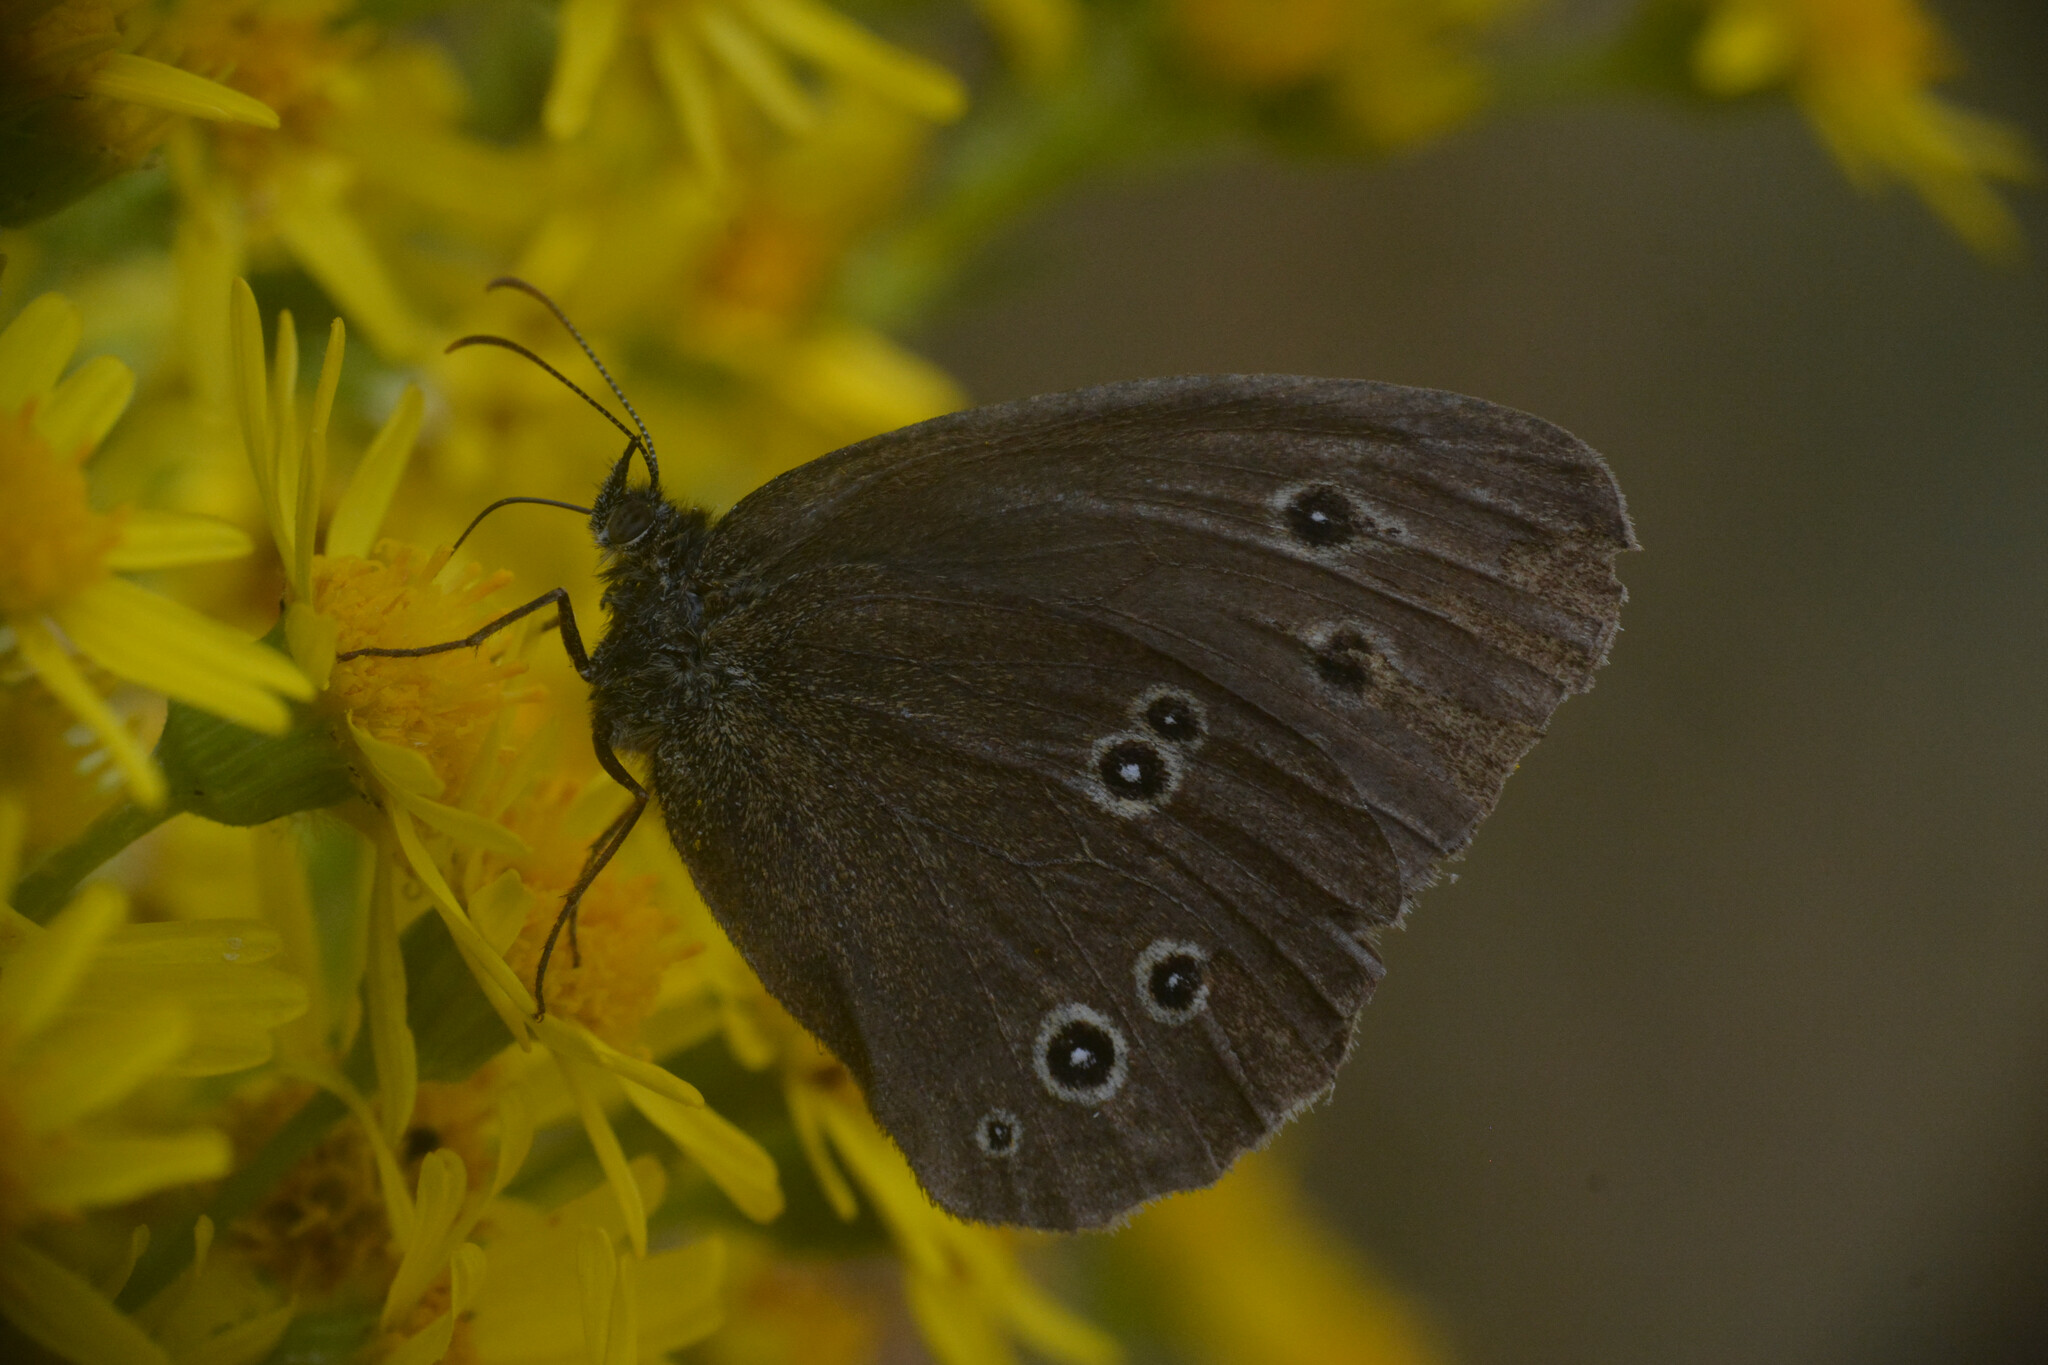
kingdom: Animalia
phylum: Arthropoda
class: Insecta
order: Lepidoptera
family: Nymphalidae
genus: Aphantopus
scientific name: Aphantopus hyperantus
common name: Ringlet
